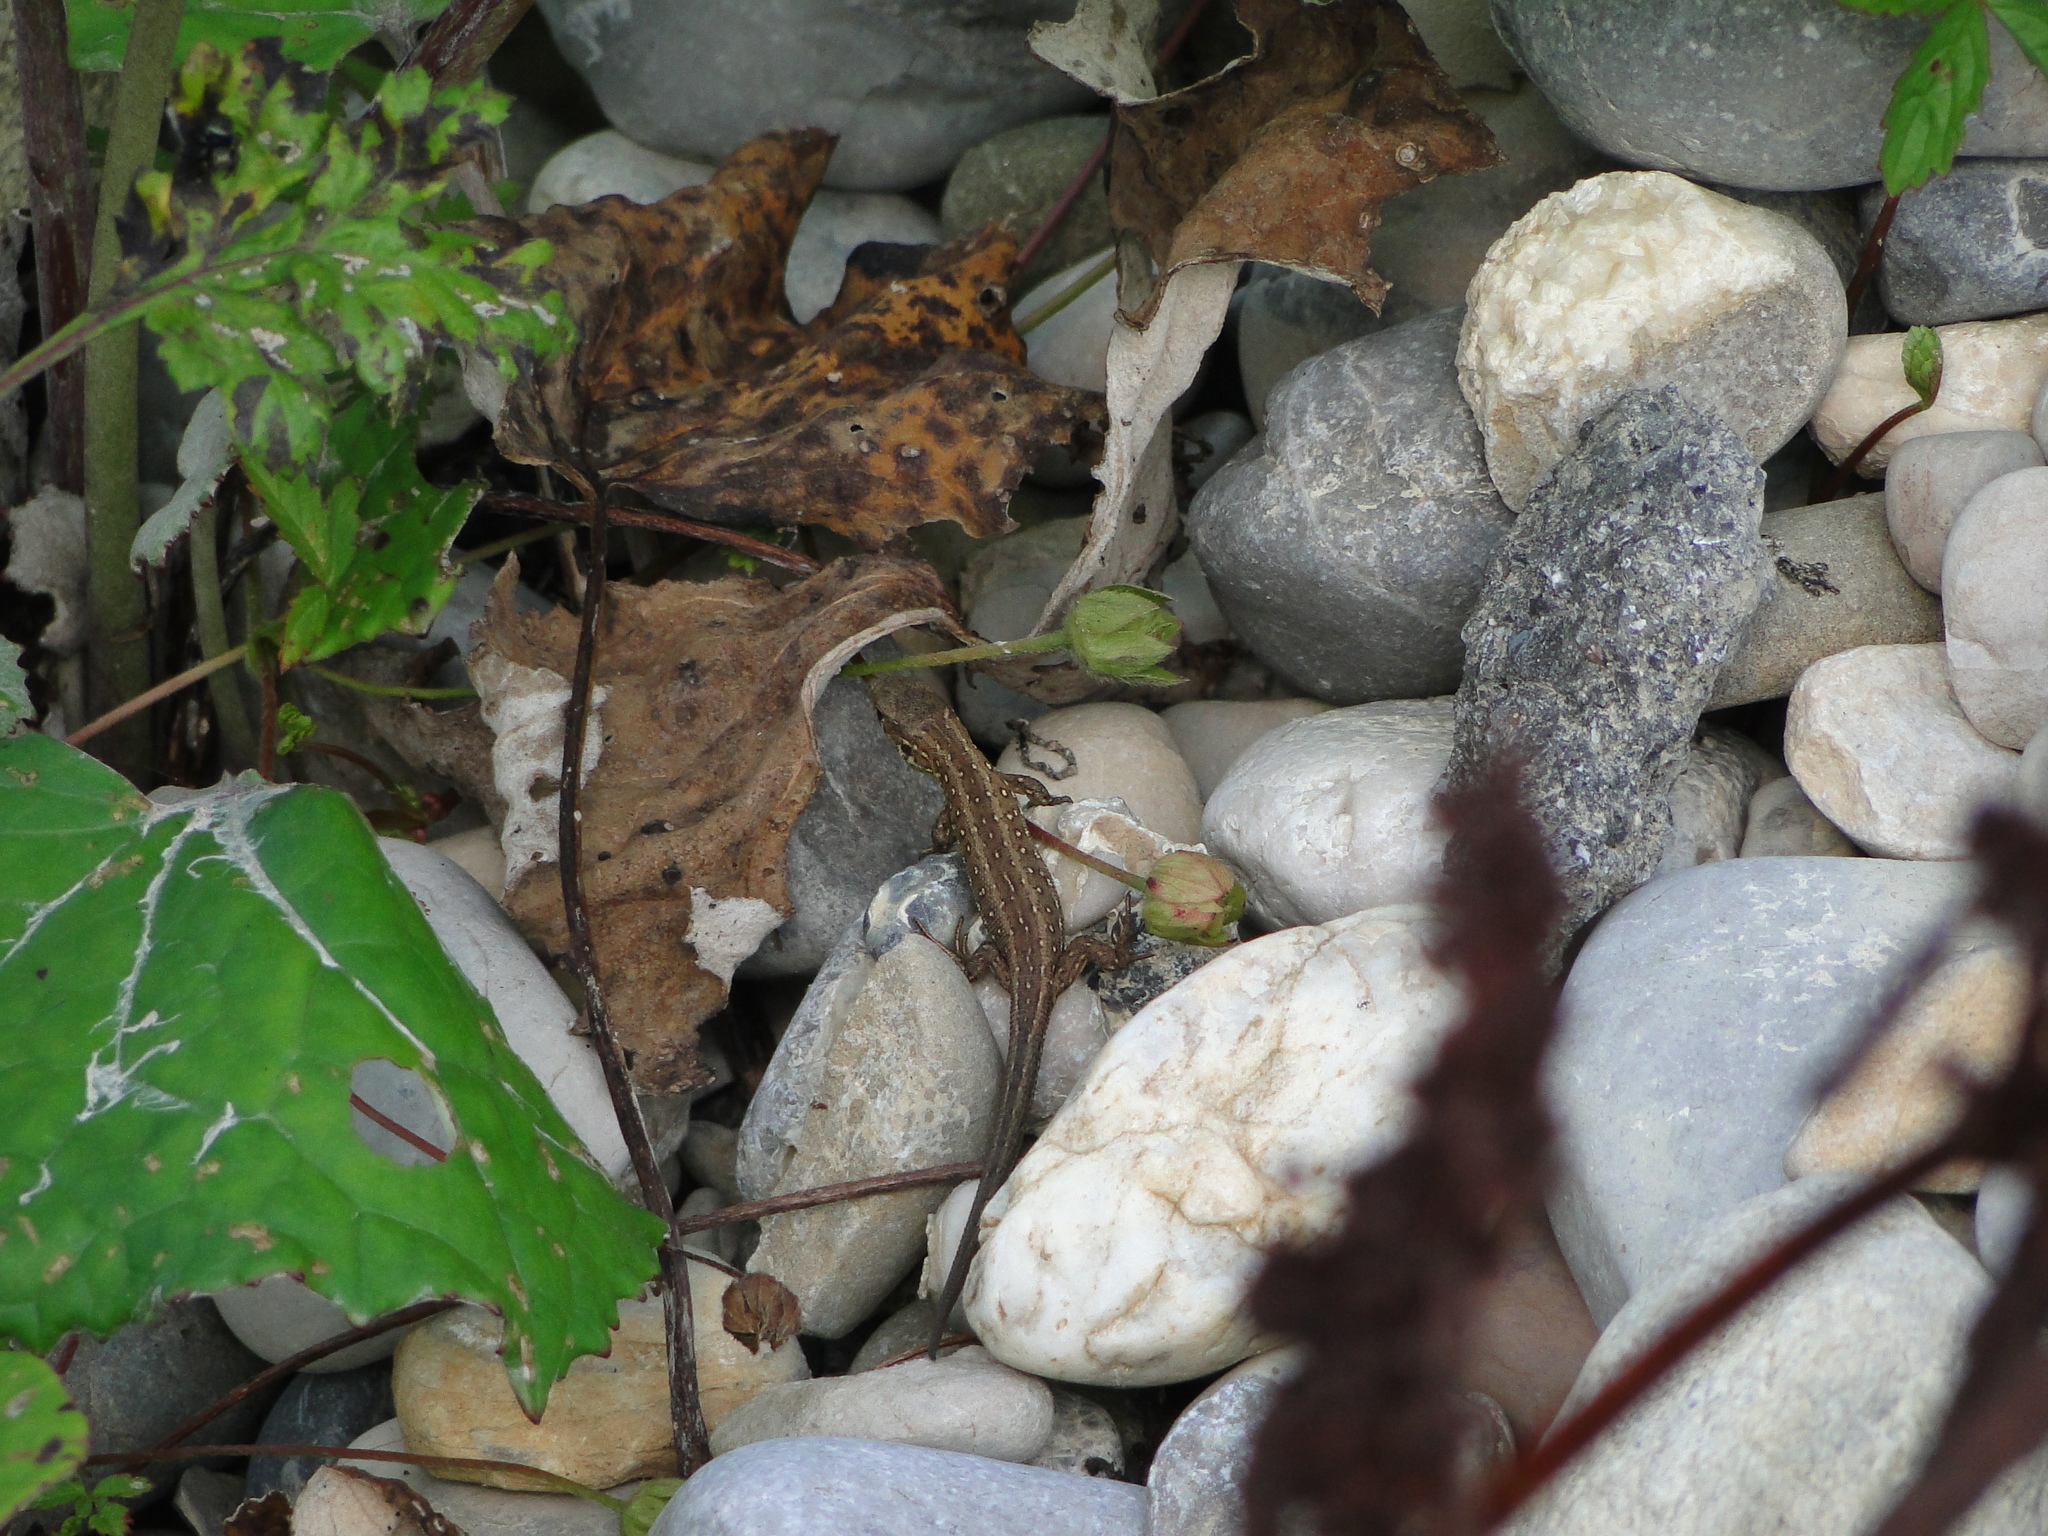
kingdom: Animalia
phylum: Chordata
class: Squamata
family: Lacertidae
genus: Lacerta
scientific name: Lacerta agilis
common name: Sand lizard
